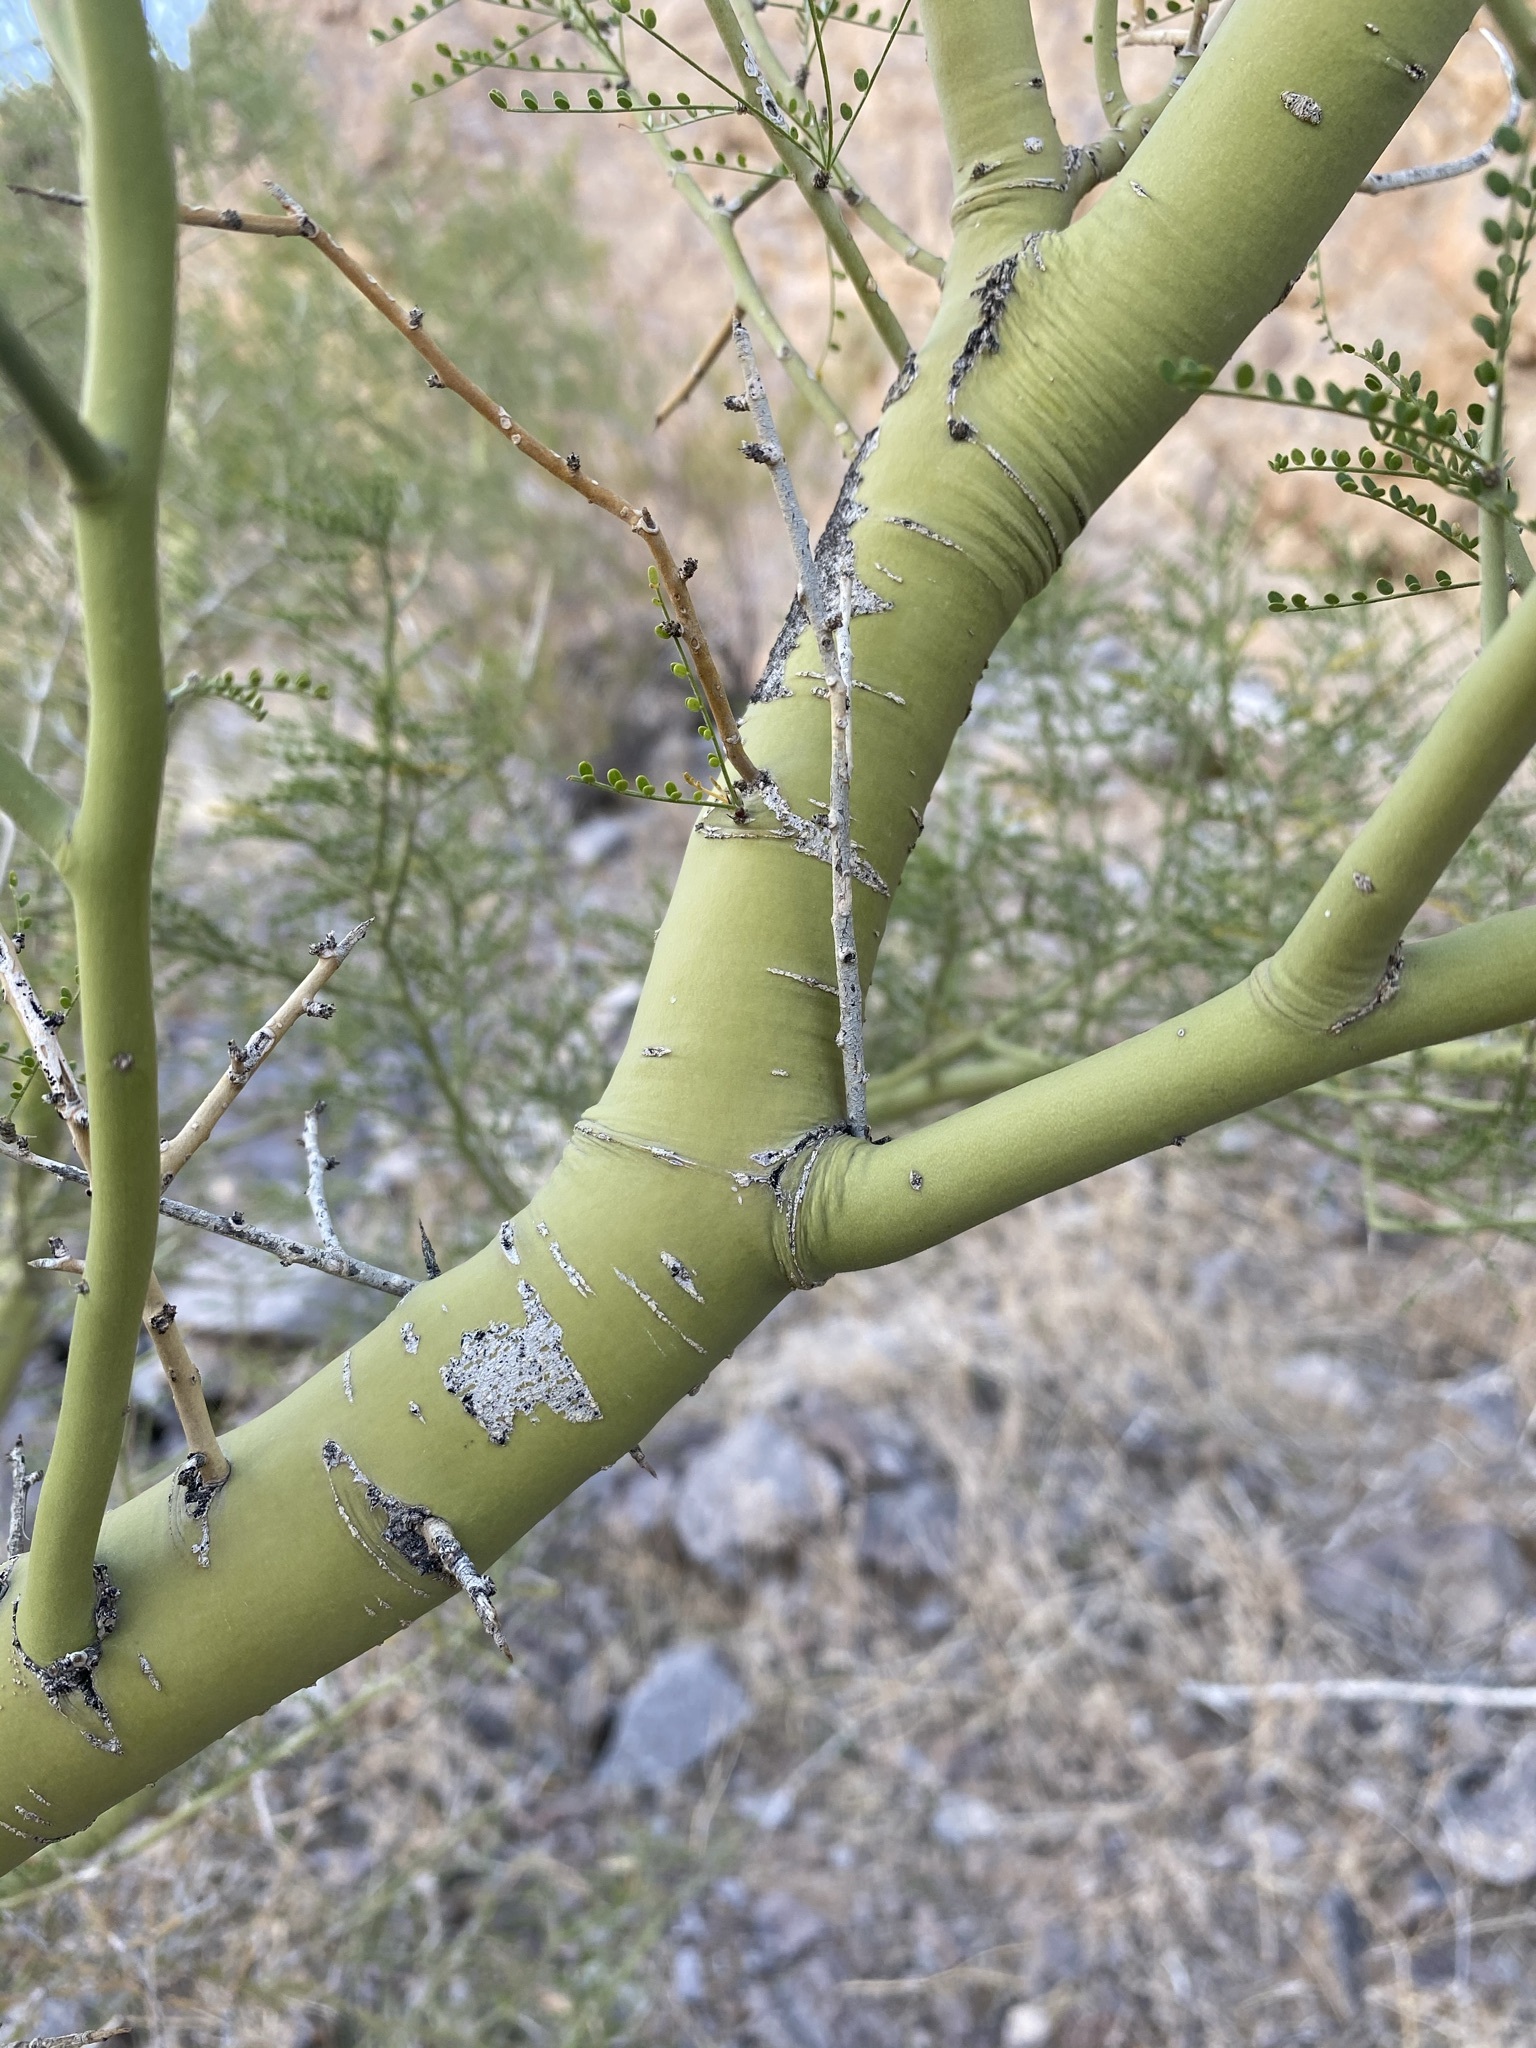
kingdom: Plantae
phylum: Tracheophyta
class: Magnoliopsida
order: Fabales
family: Fabaceae
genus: Parkinsonia
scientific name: Parkinsonia microphylla
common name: Yellow paloverde
